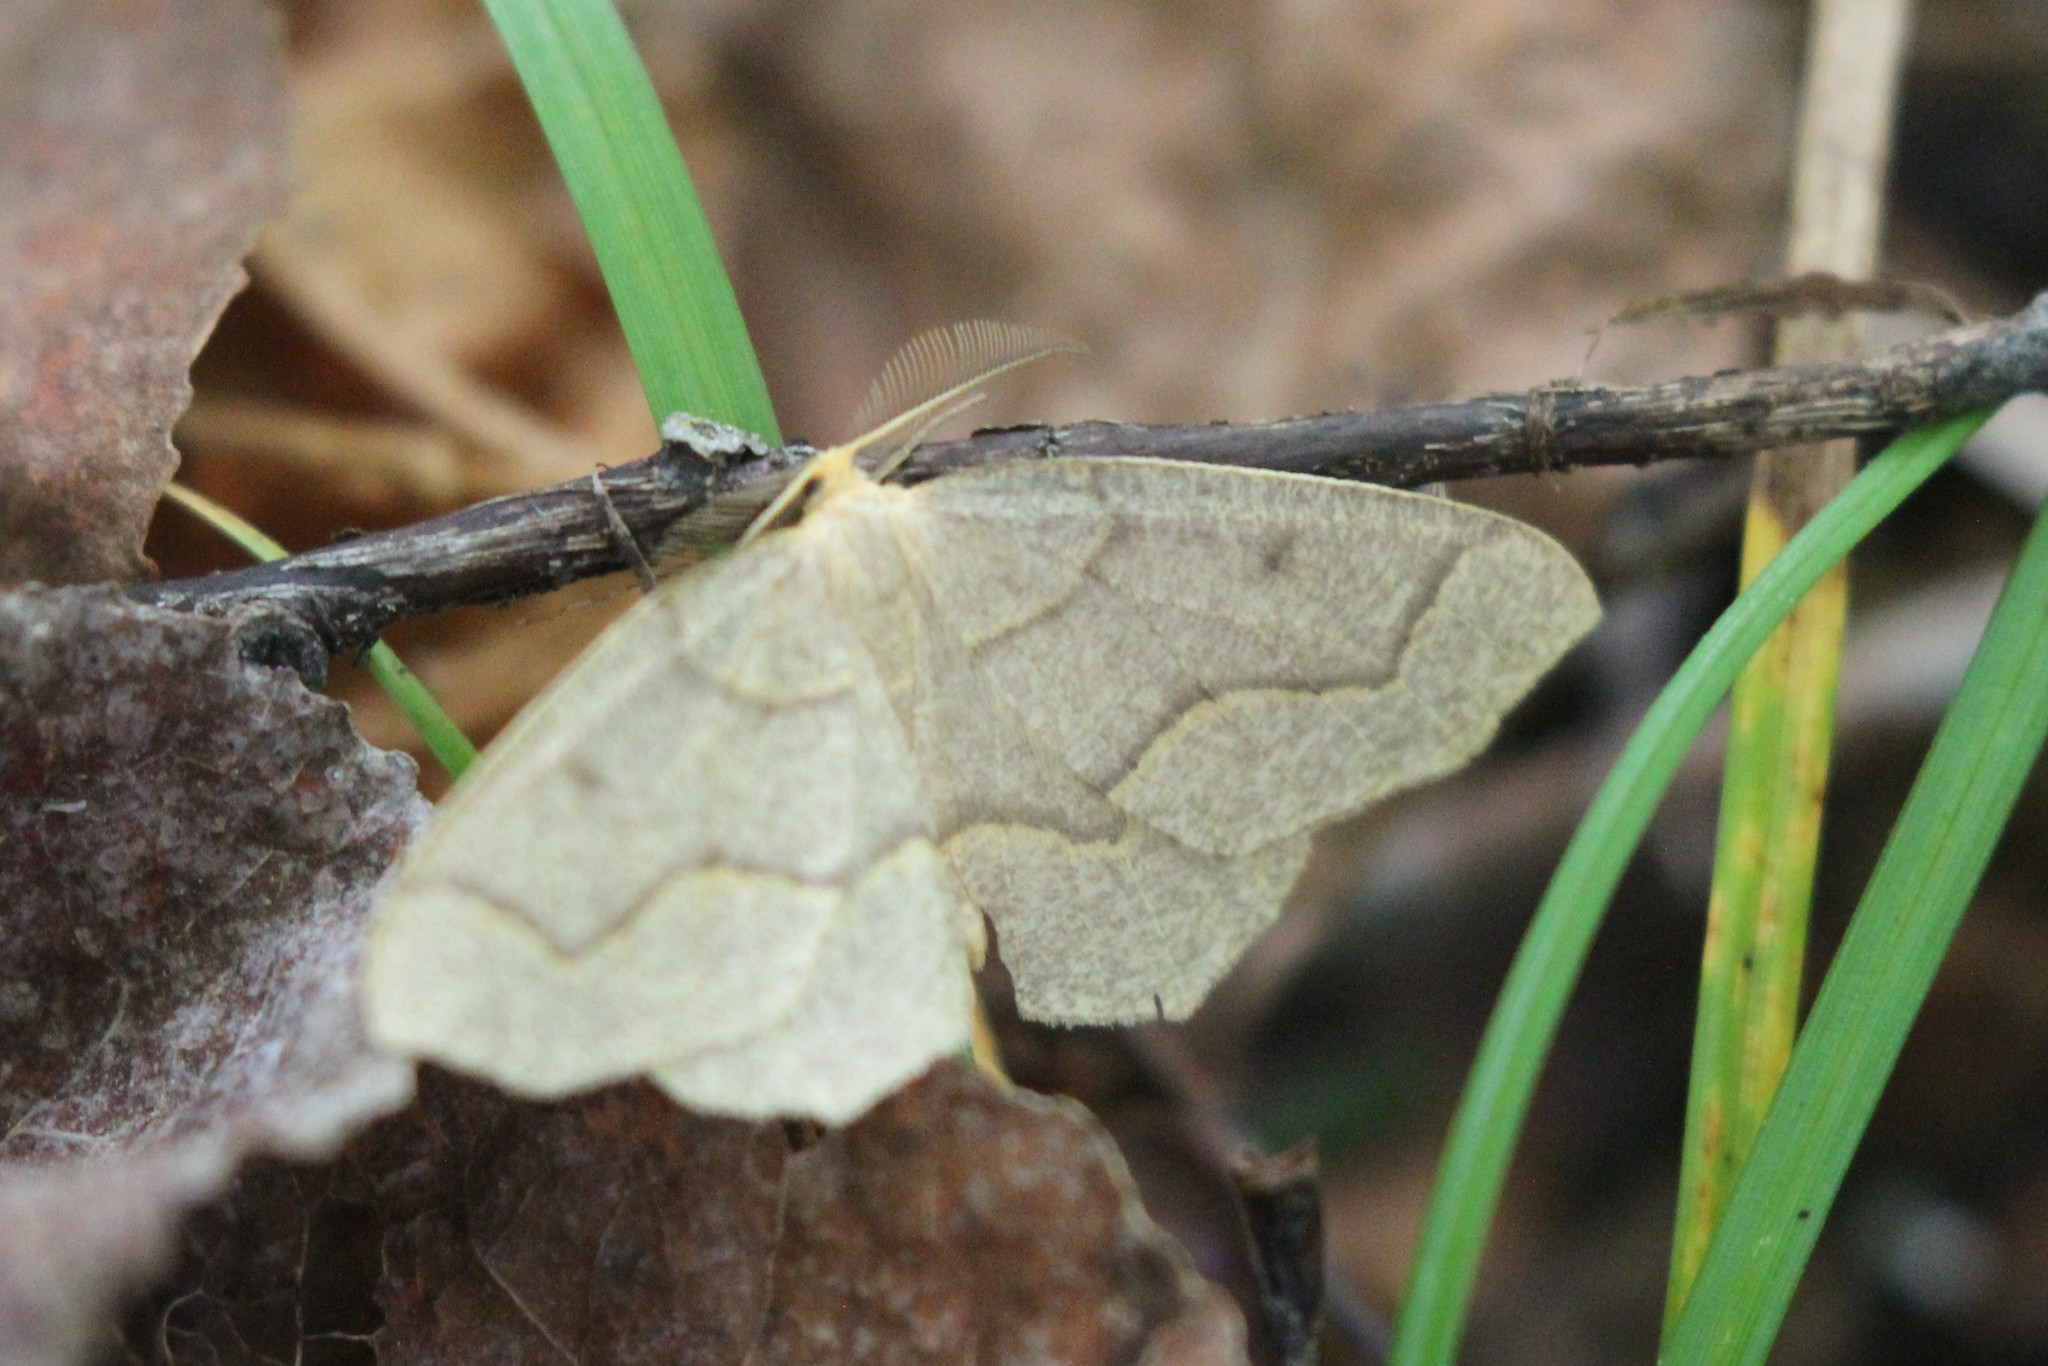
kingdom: Animalia
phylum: Arthropoda
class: Insecta
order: Lepidoptera
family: Geometridae
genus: Lambdina
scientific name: Lambdina fiscellaria
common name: Hemlock looper
